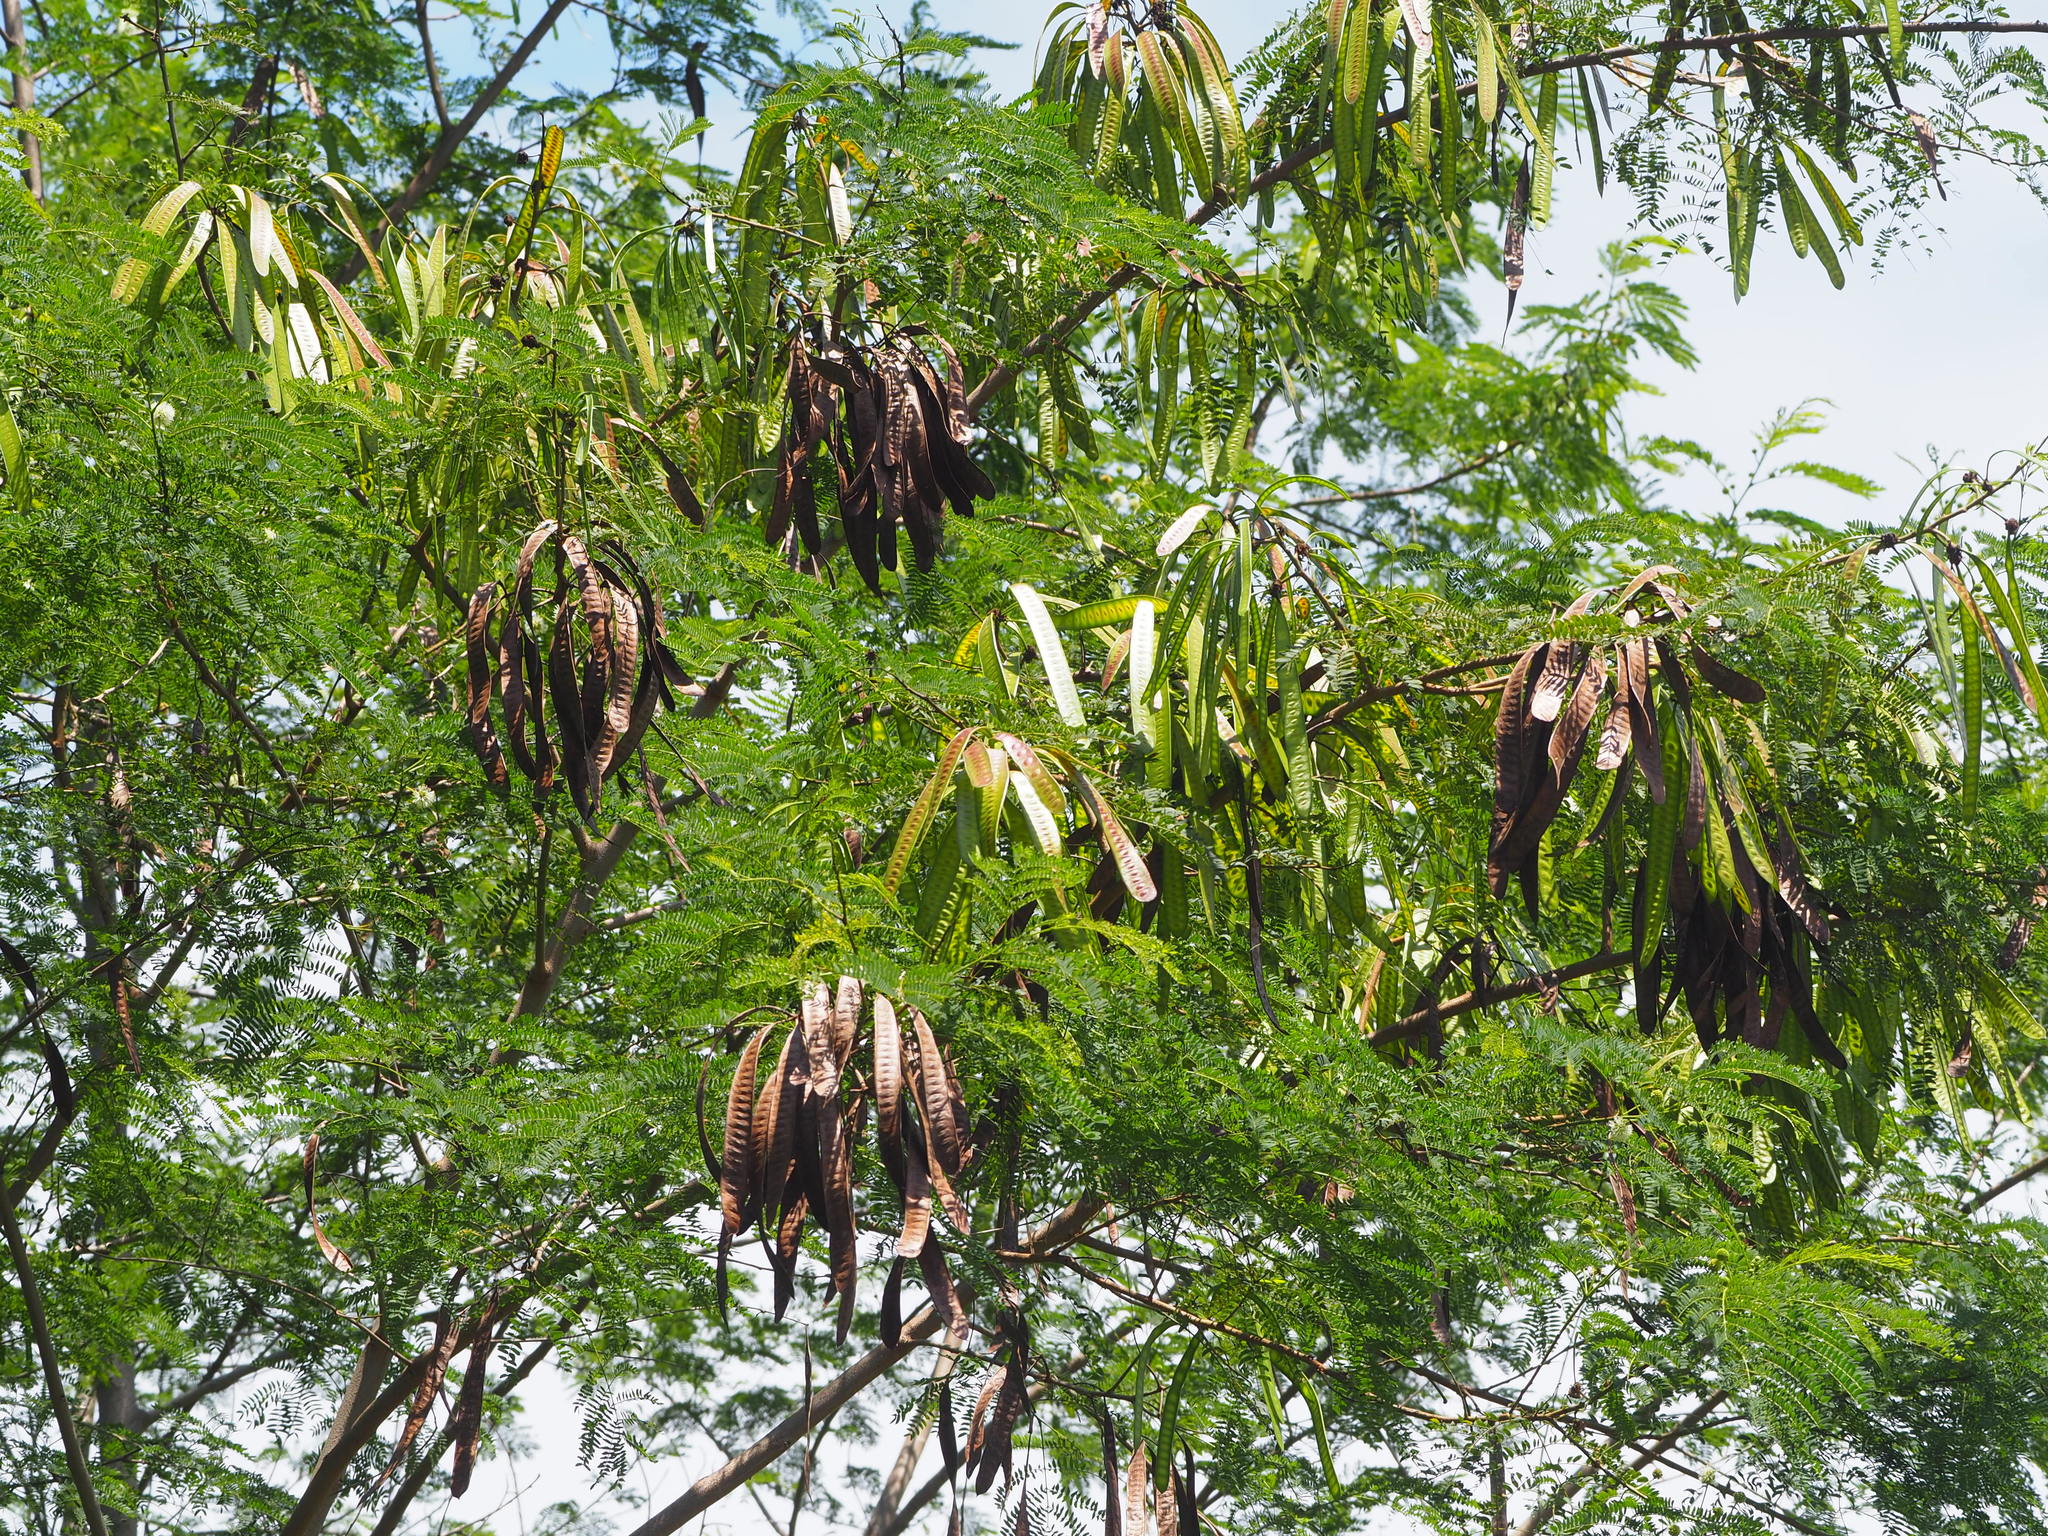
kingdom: Plantae
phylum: Tracheophyta
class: Magnoliopsida
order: Fabales
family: Fabaceae
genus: Leucaena
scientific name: Leucaena leucocephala
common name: White leadtree
